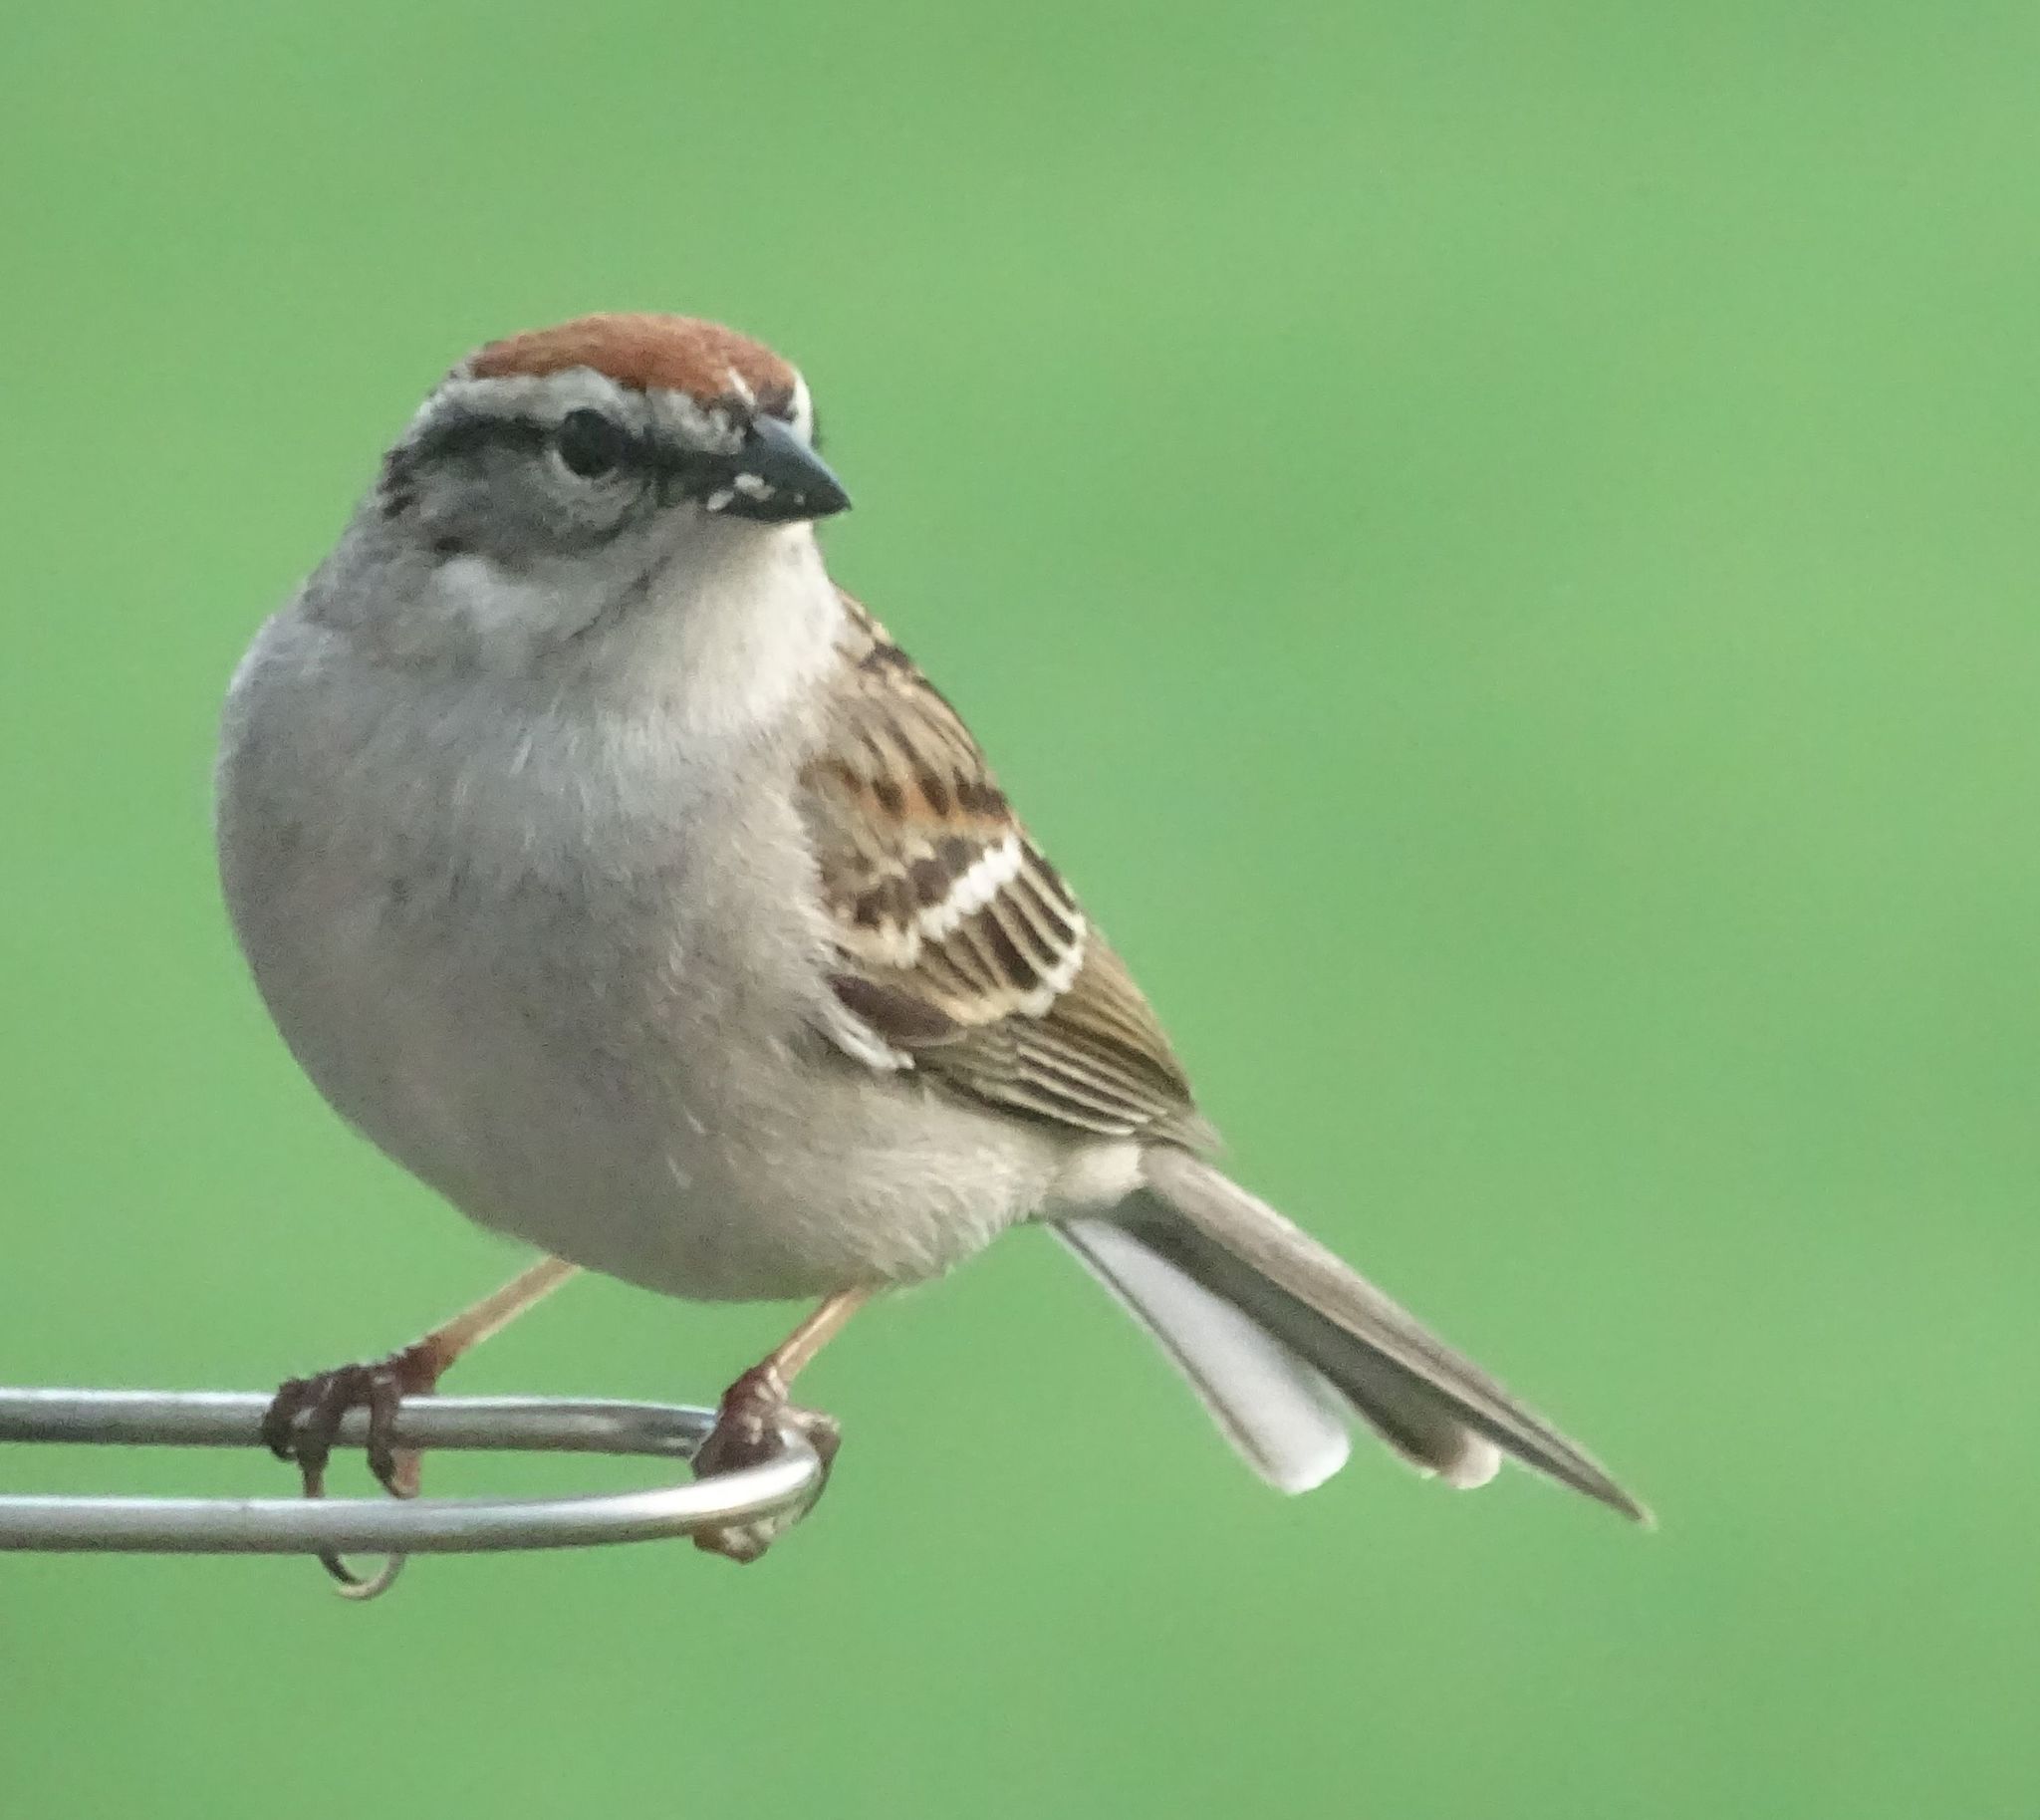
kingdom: Animalia
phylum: Chordata
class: Aves
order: Passeriformes
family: Passerellidae
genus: Spizella
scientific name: Spizella passerina
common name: Chipping sparrow
